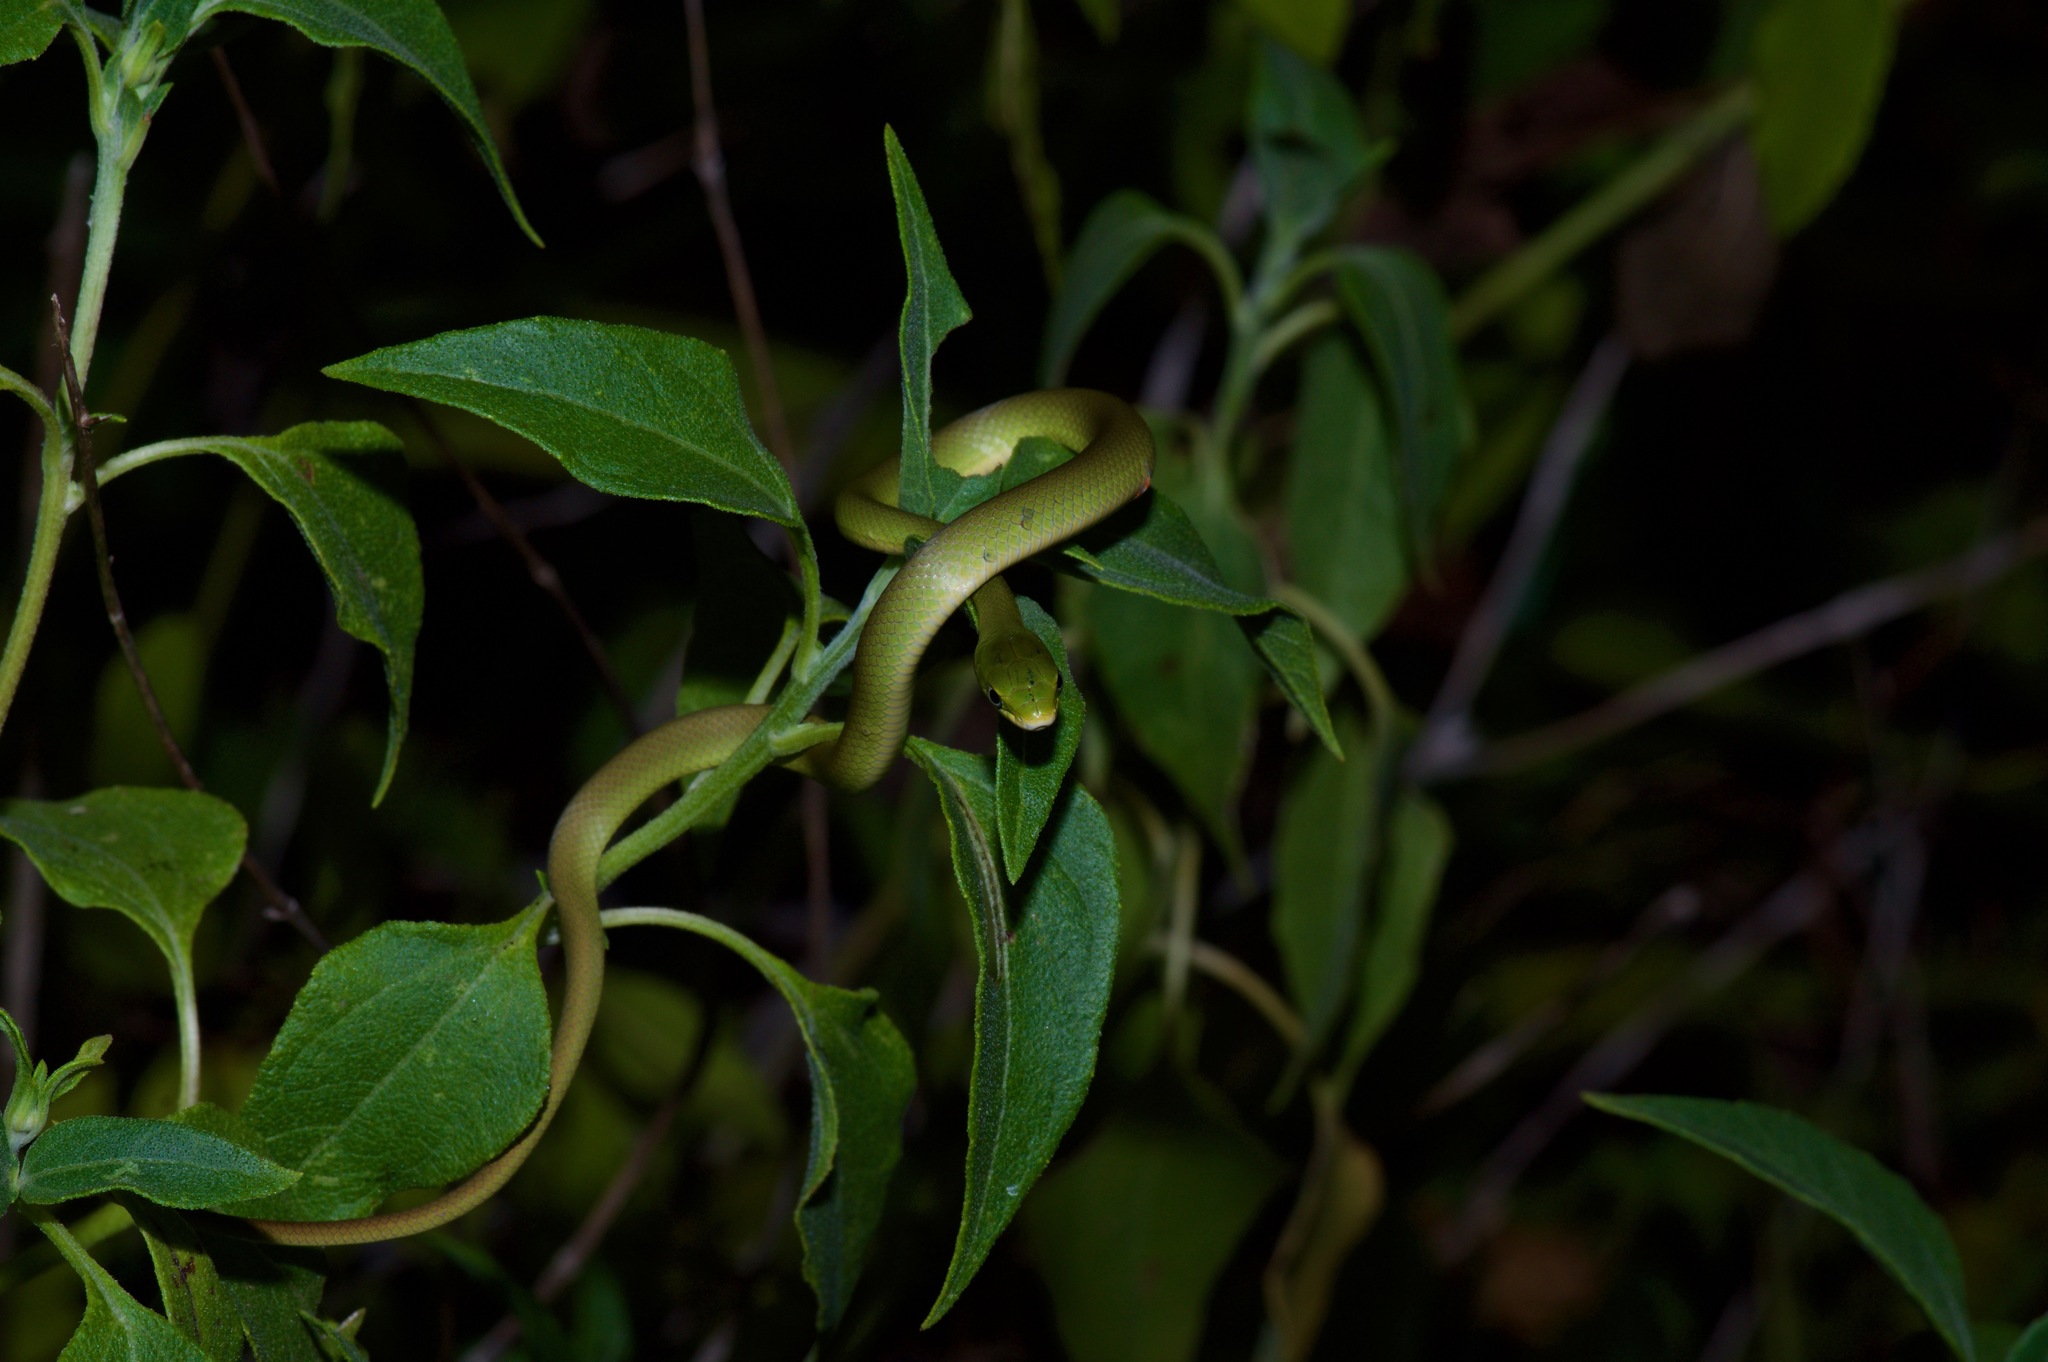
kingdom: Animalia
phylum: Chordata
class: Squamata
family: Colubridae
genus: Opheodrys
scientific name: Opheodrys aestivus
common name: Rough greensnake
